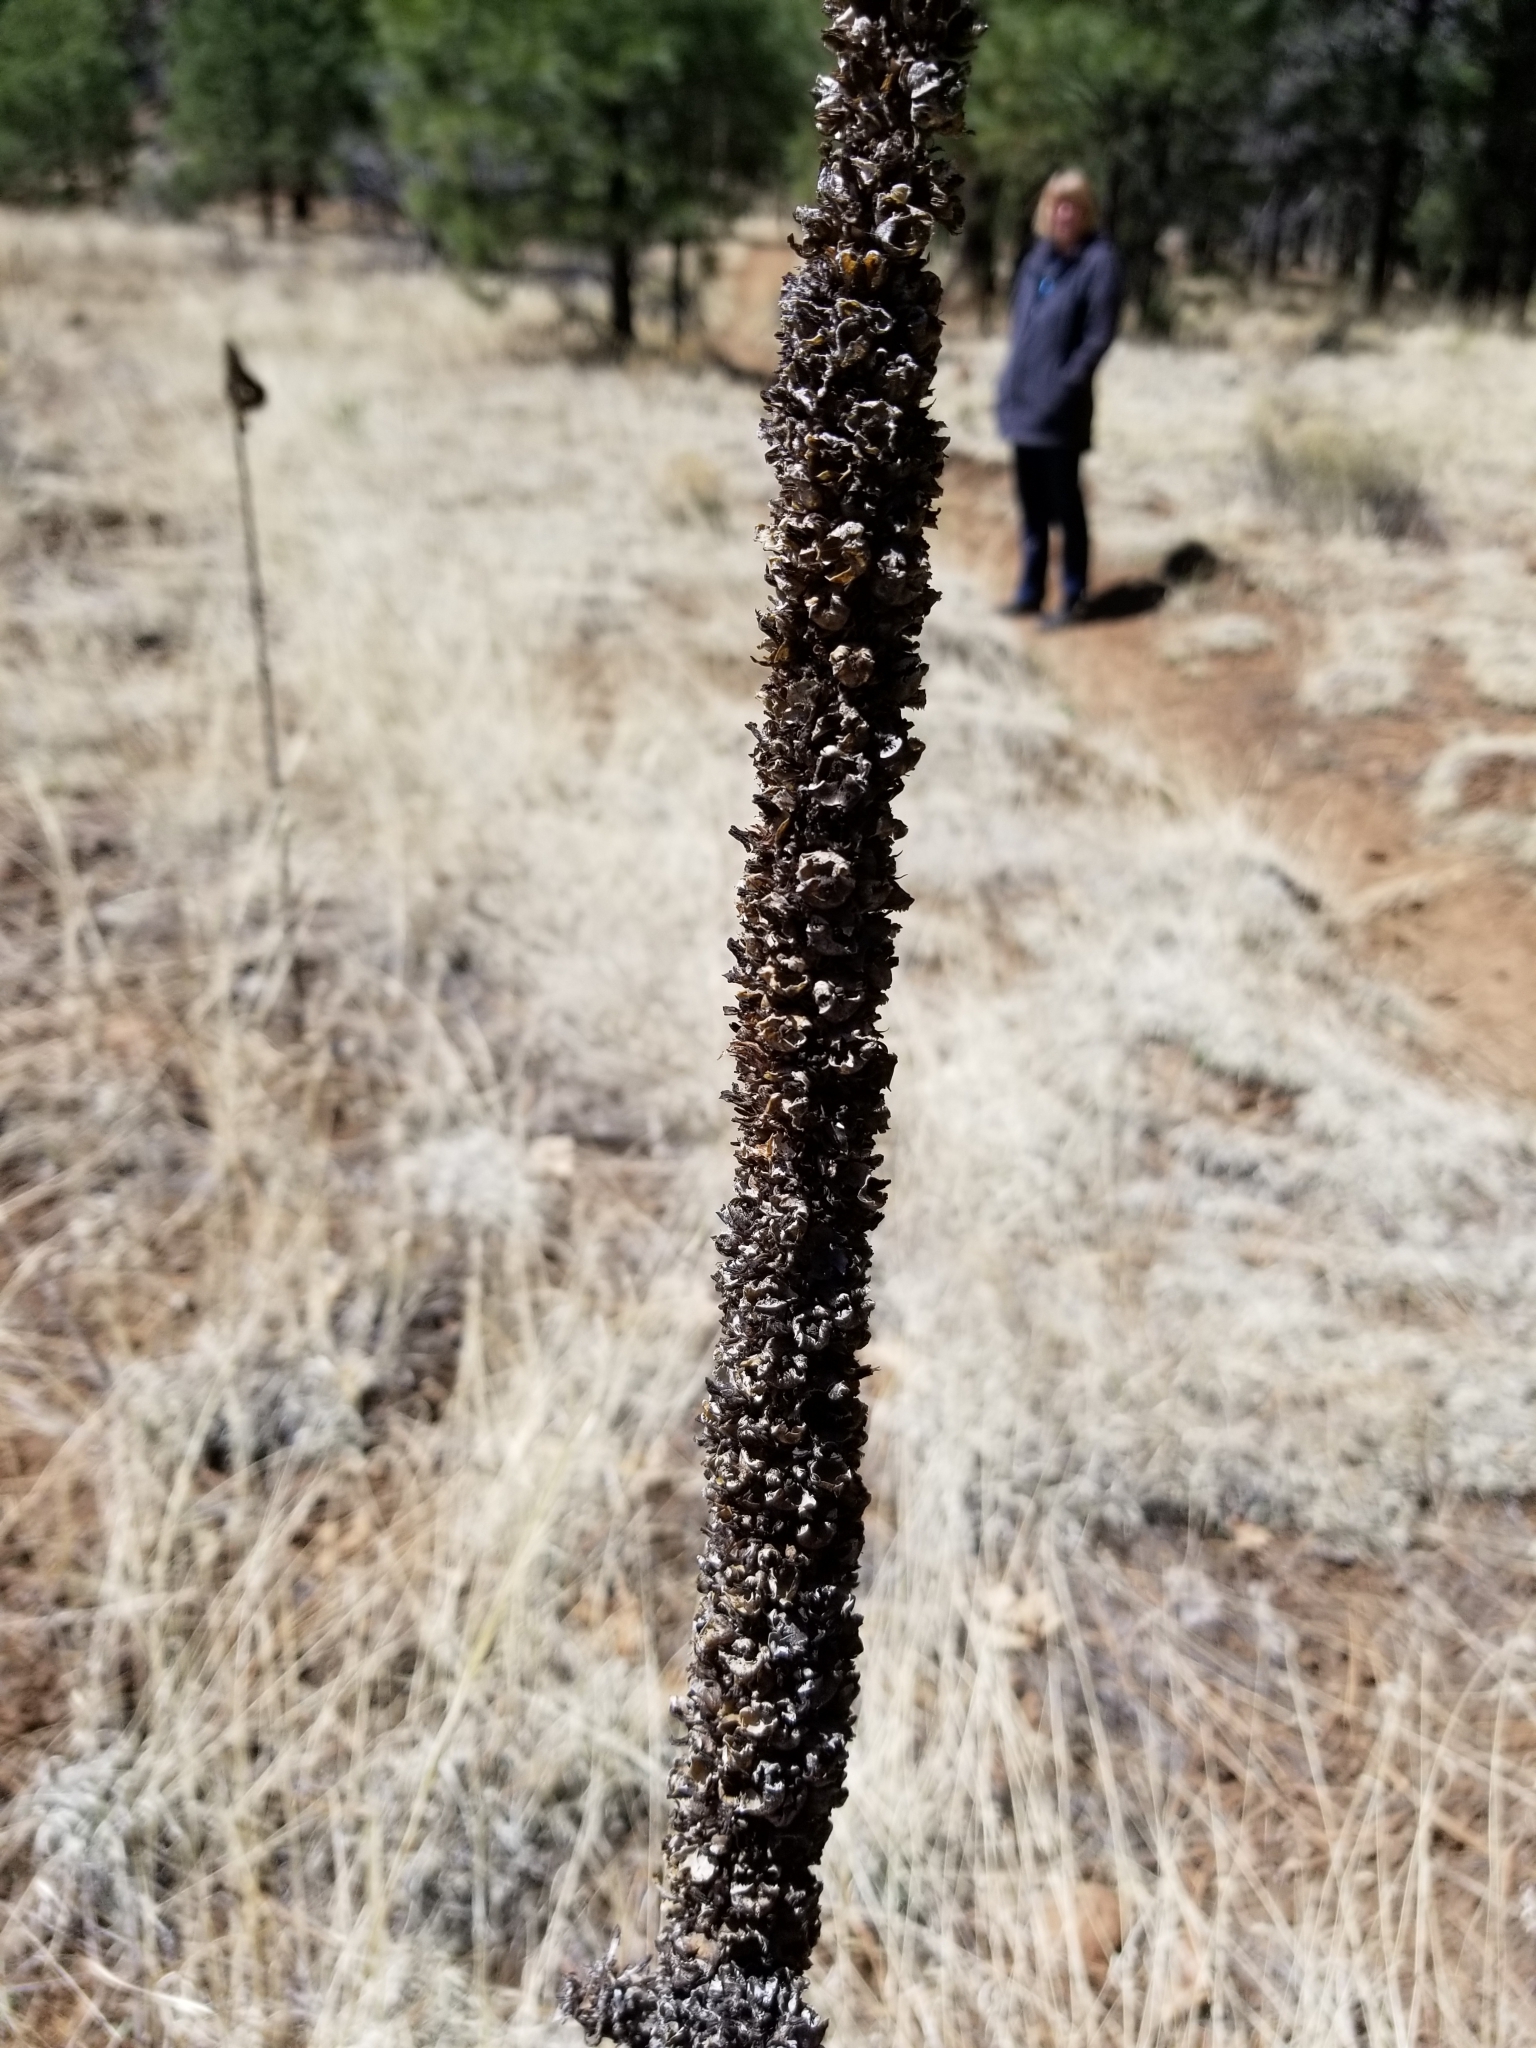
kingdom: Plantae
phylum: Tracheophyta
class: Magnoliopsida
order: Lamiales
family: Scrophulariaceae
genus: Verbascum
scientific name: Verbascum thapsus
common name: Common mullein
